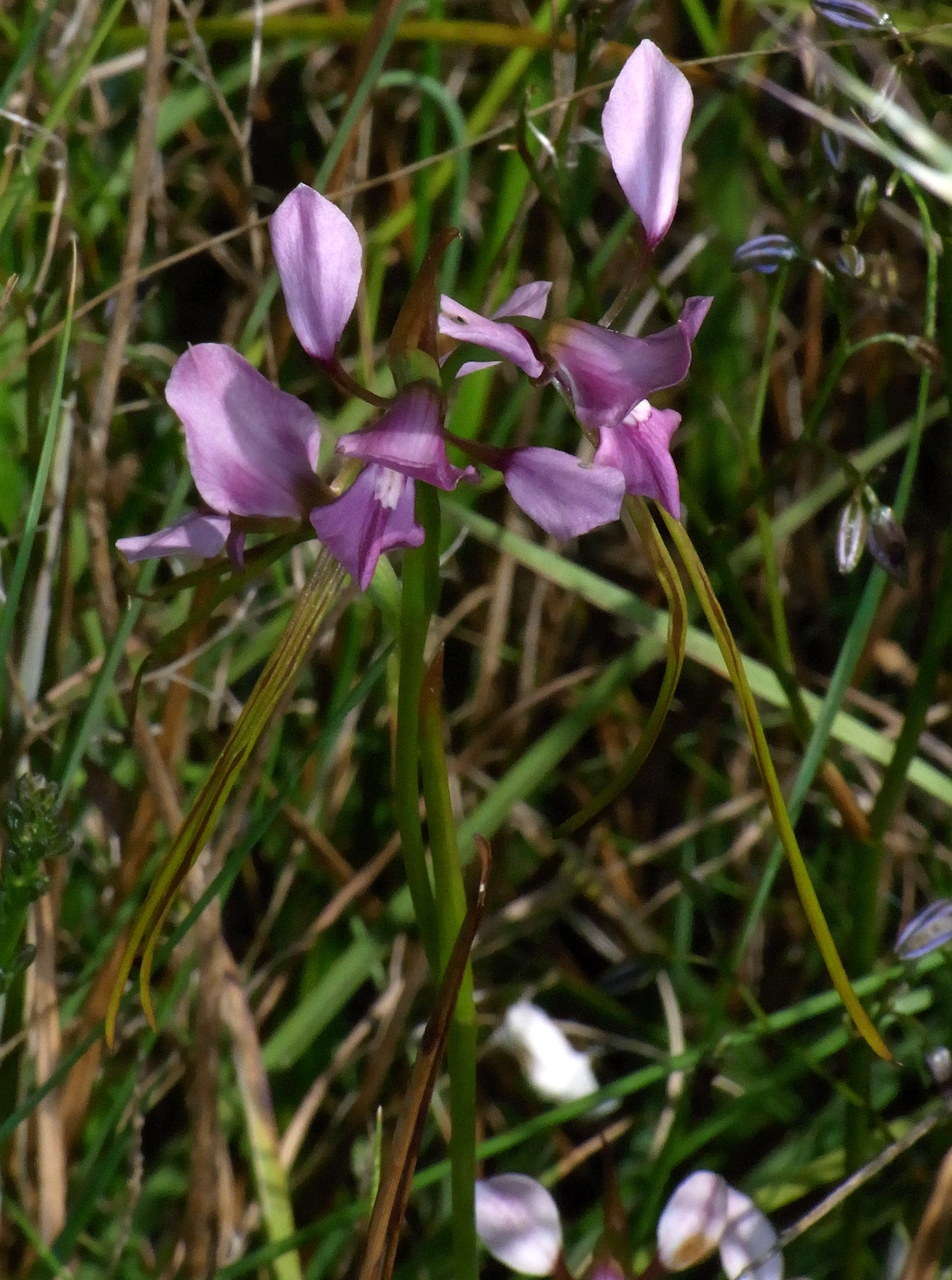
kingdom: Plantae
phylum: Tracheophyta
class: Liliopsida
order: Asparagales
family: Orchidaceae
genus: Diuris
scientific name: Diuris punctata
